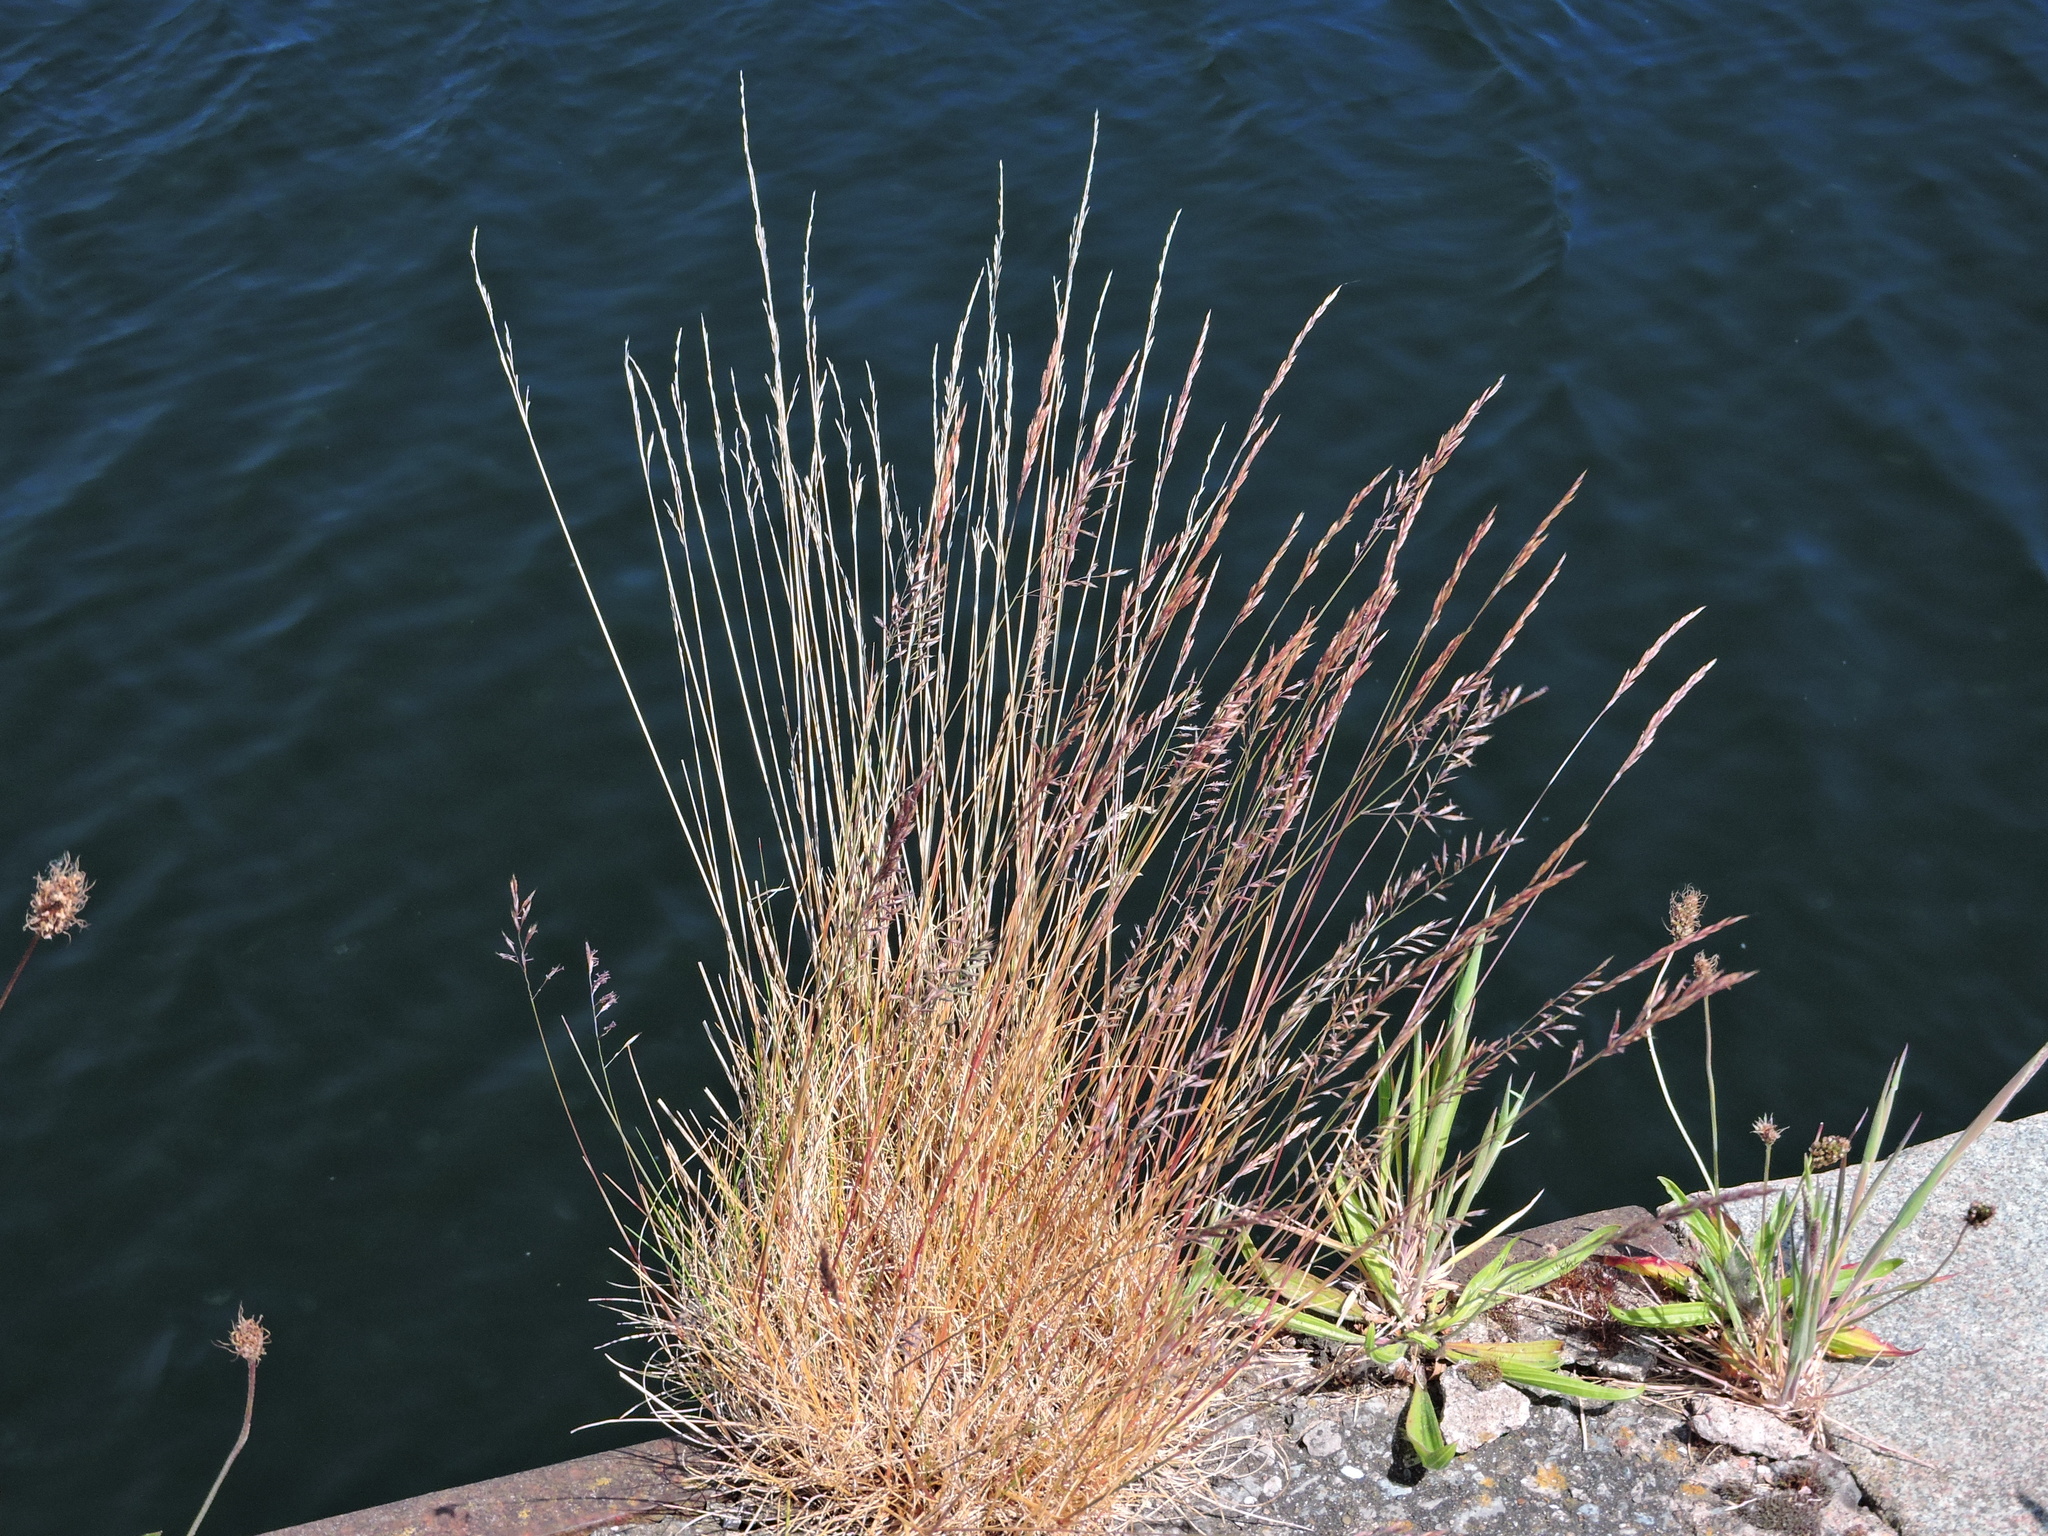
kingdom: Plantae
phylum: Tracheophyta
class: Liliopsida
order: Poales
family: Poaceae
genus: Festuca
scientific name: Festuca rubra
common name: Red fescue
